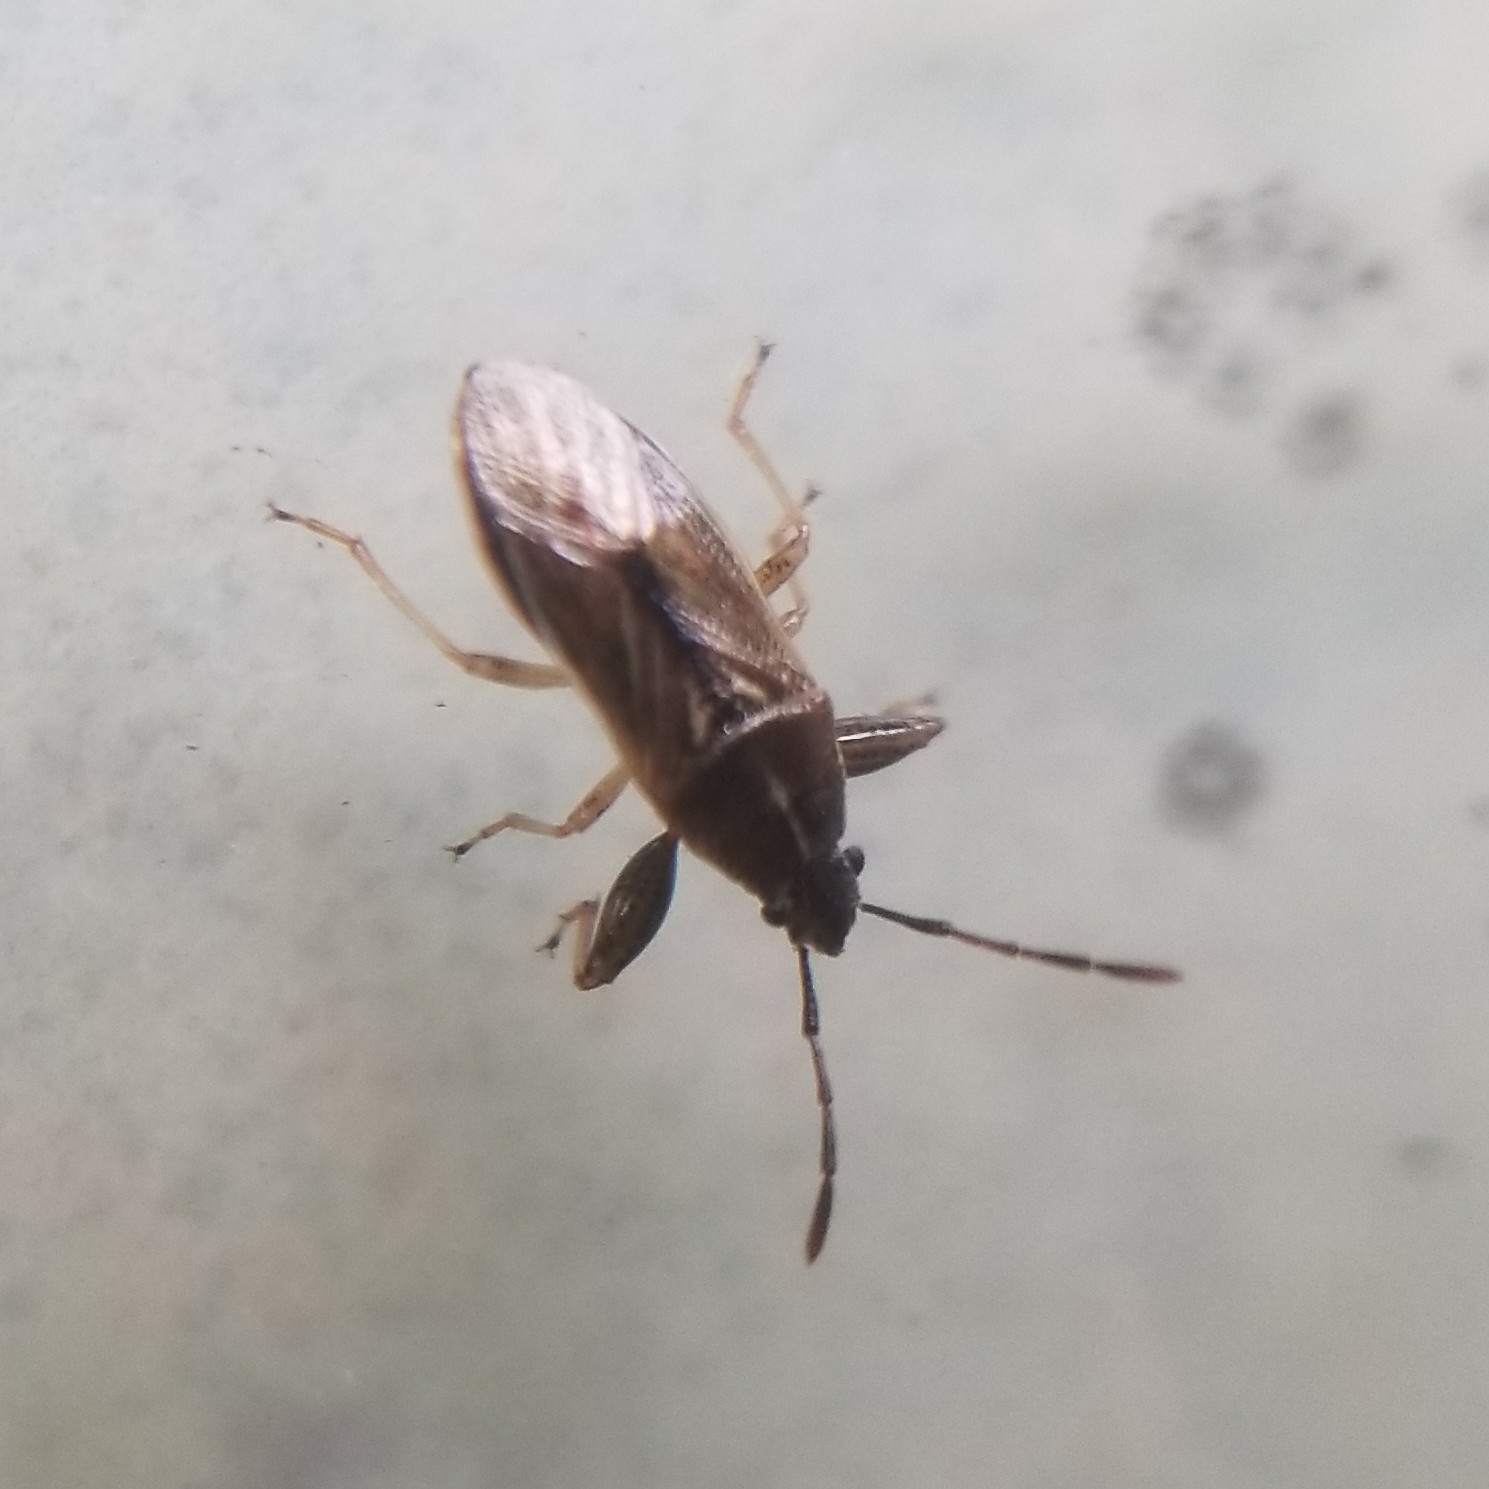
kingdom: Animalia
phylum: Arthropoda
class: Insecta
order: Hemiptera
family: Pachygronthidae
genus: Oedancala
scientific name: Oedancala dorsalis
